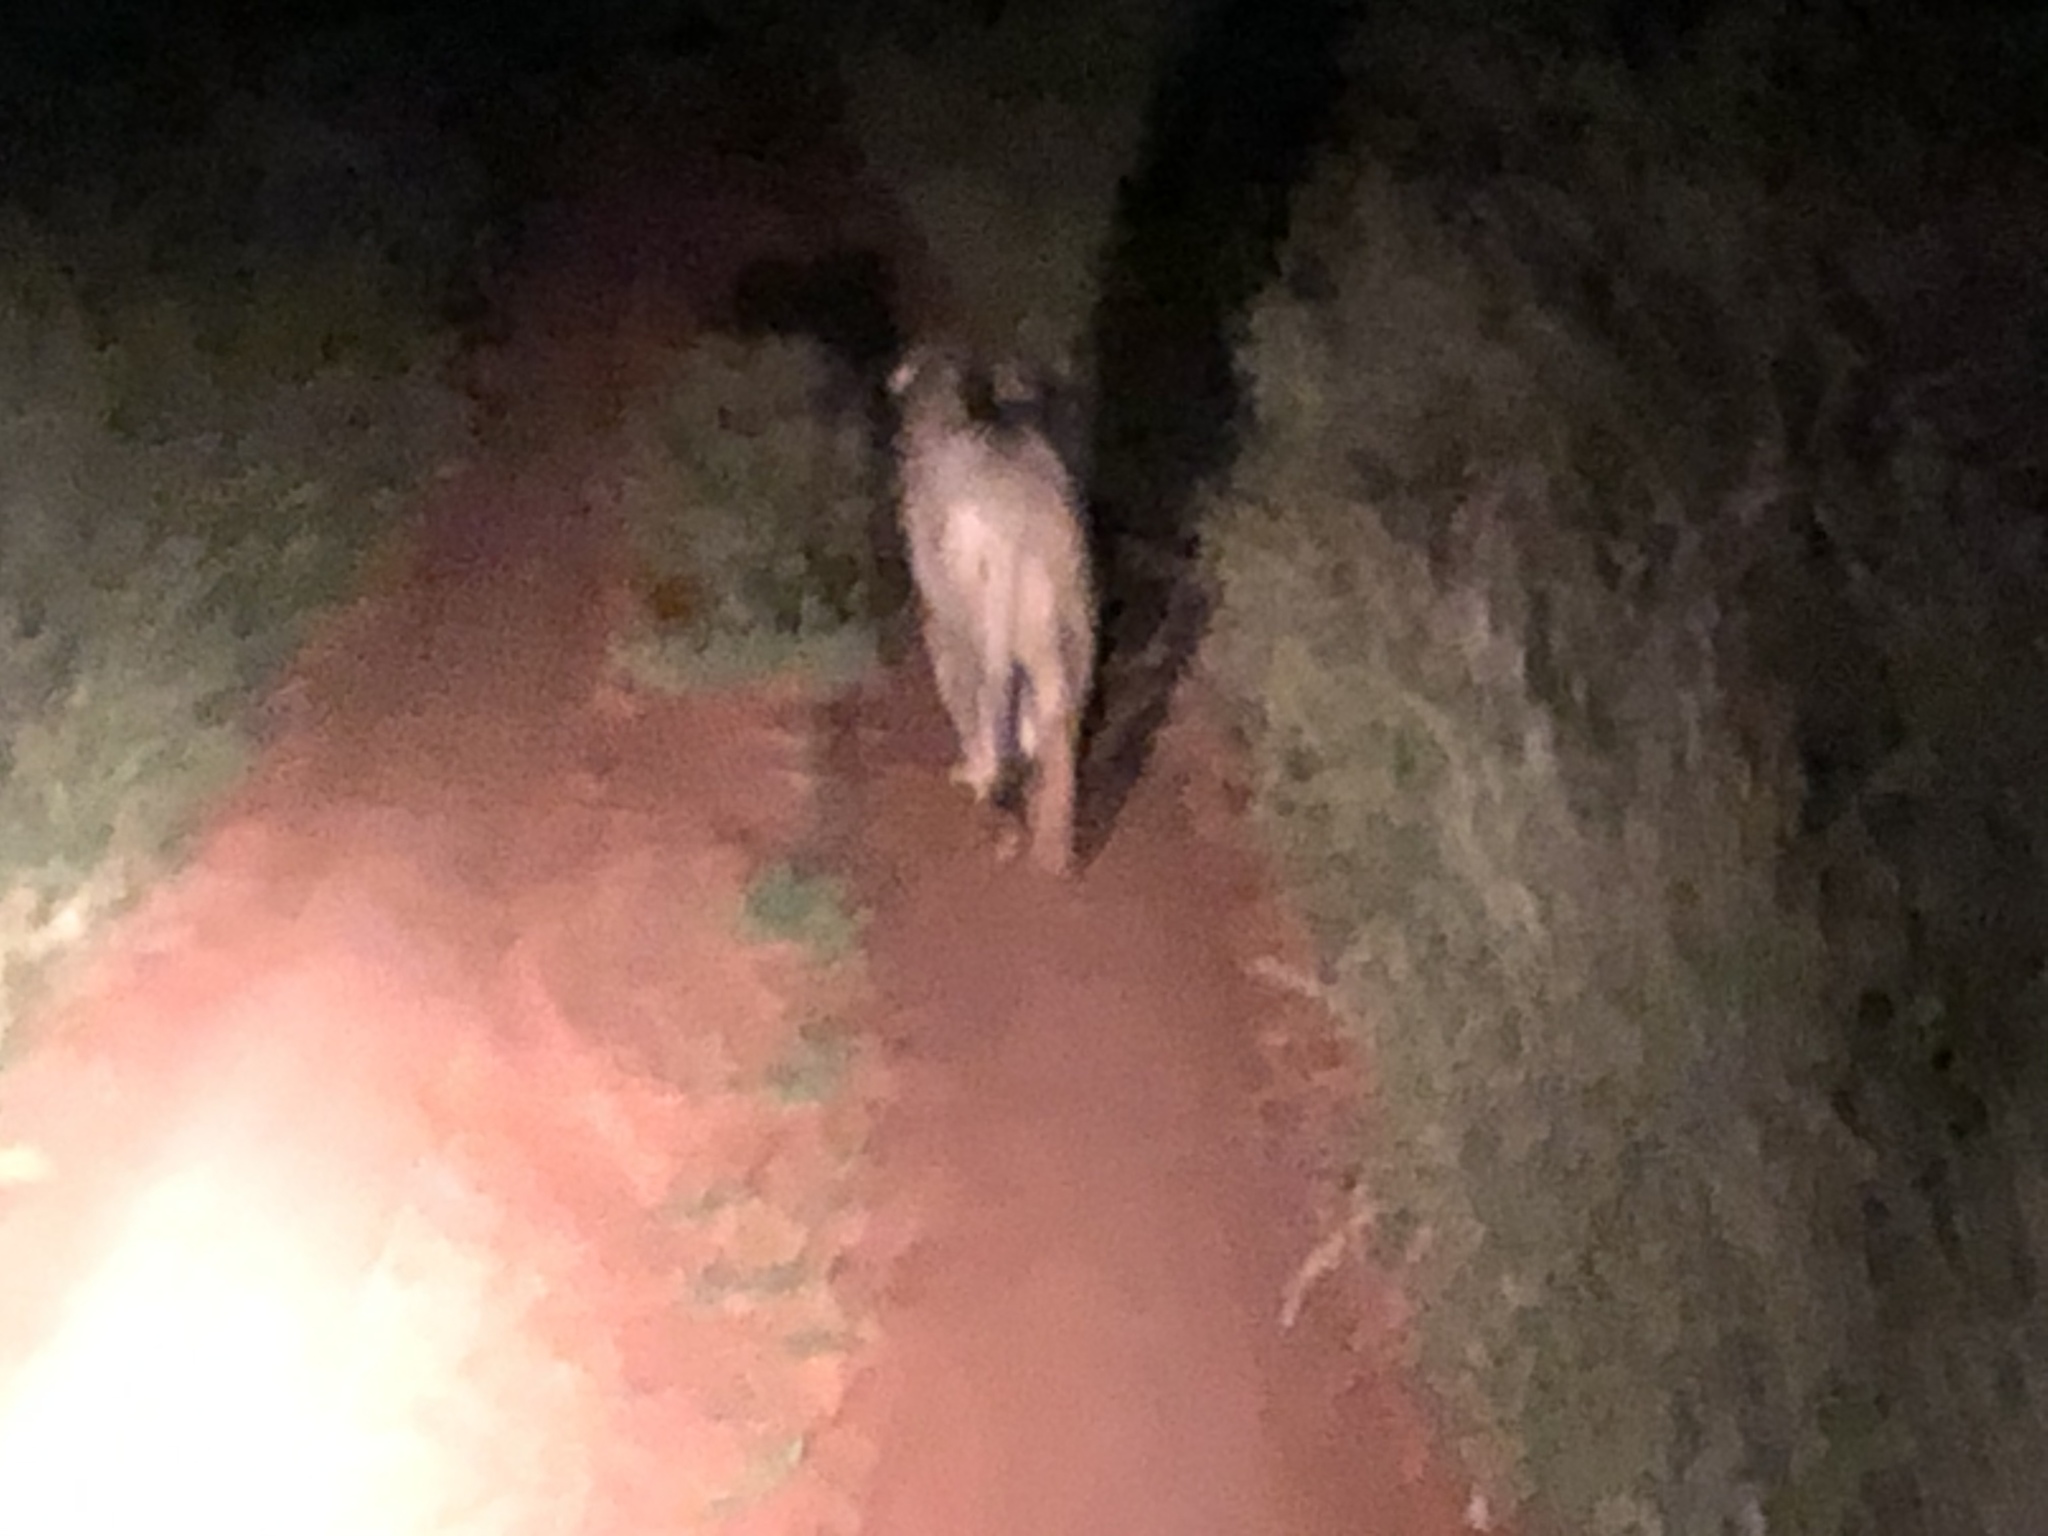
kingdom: Animalia
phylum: Chordata
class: Mammalia
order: Carnivora
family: Felidae
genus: Panthera
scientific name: Panthera leo
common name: Lion
